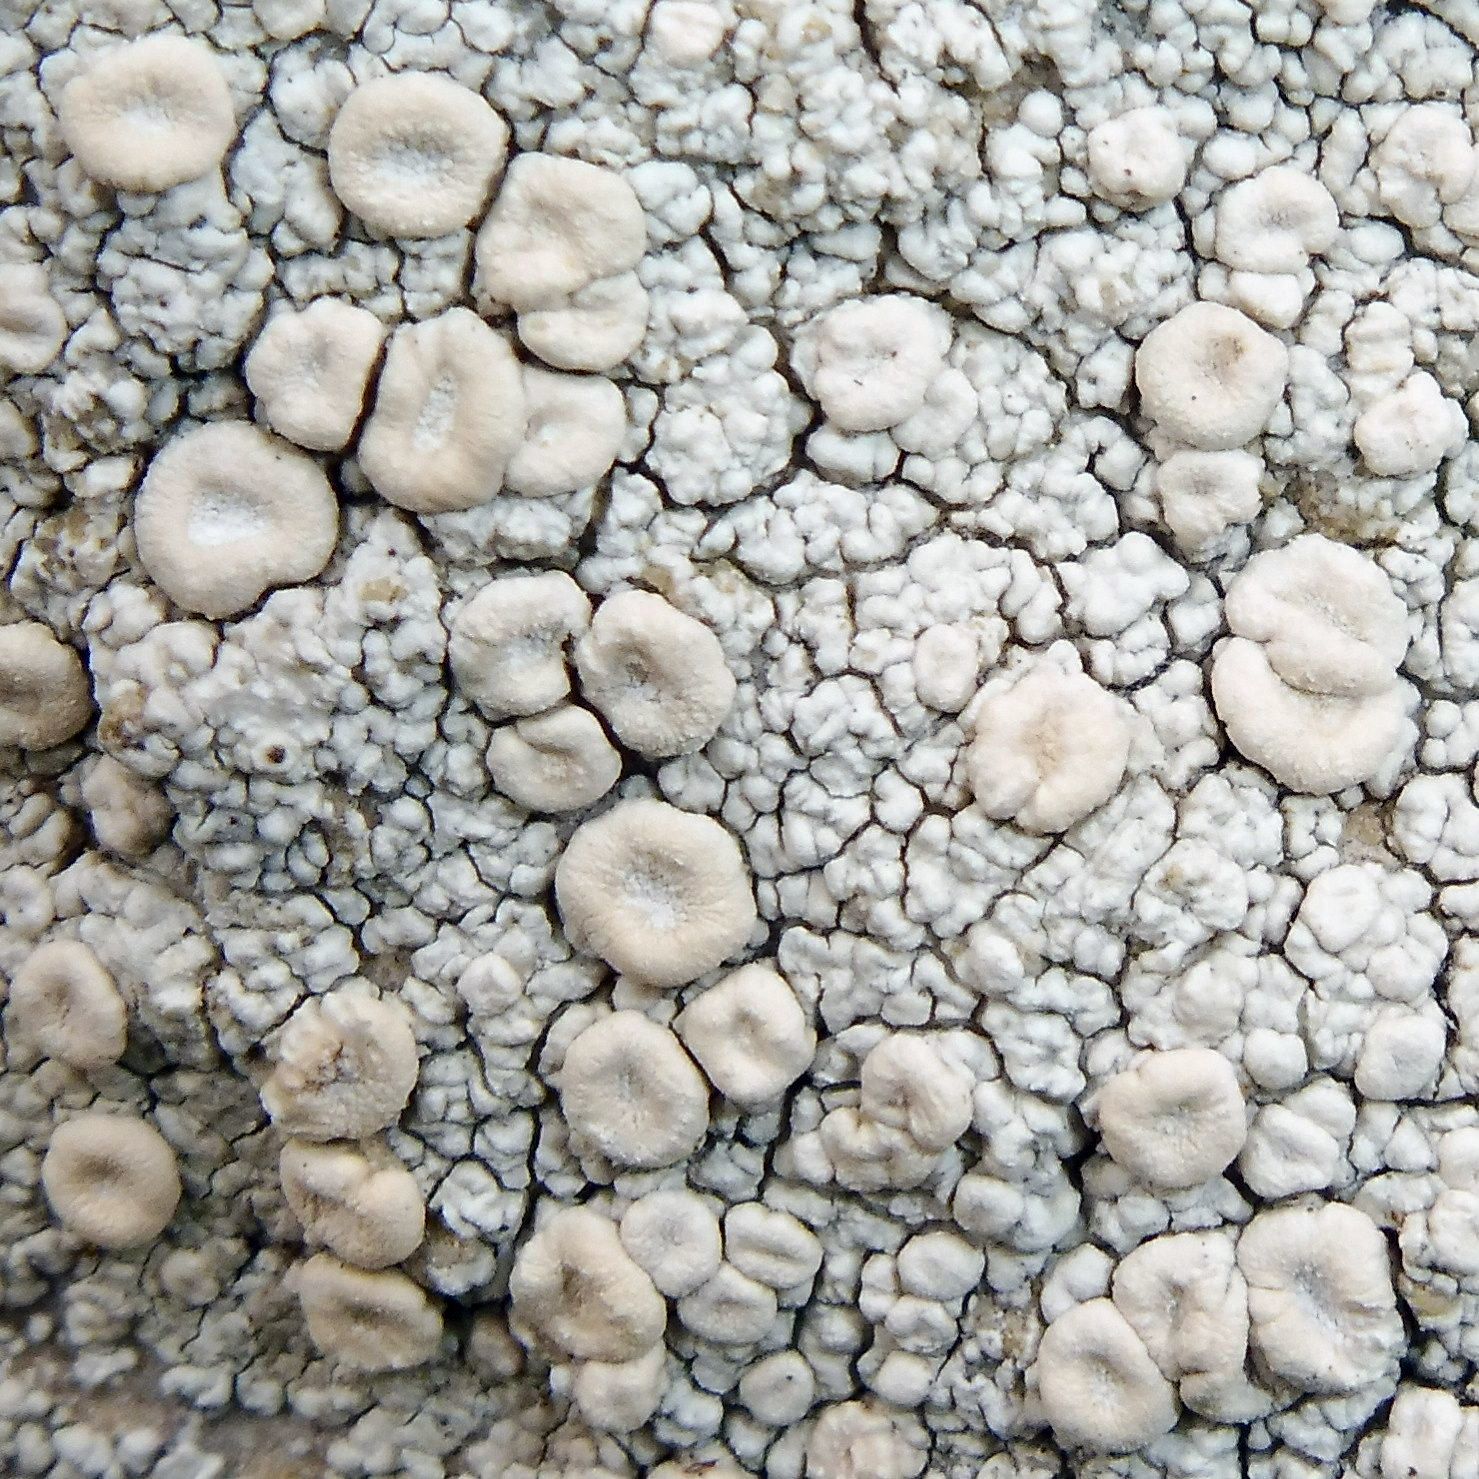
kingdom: Fungi
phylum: Ascomycota
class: Lecanoromycetes
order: Pertusariales
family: Ochrolechiaceae
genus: Ochrolechia
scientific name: Ochrolechia parella
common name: Crab's eye lichen
